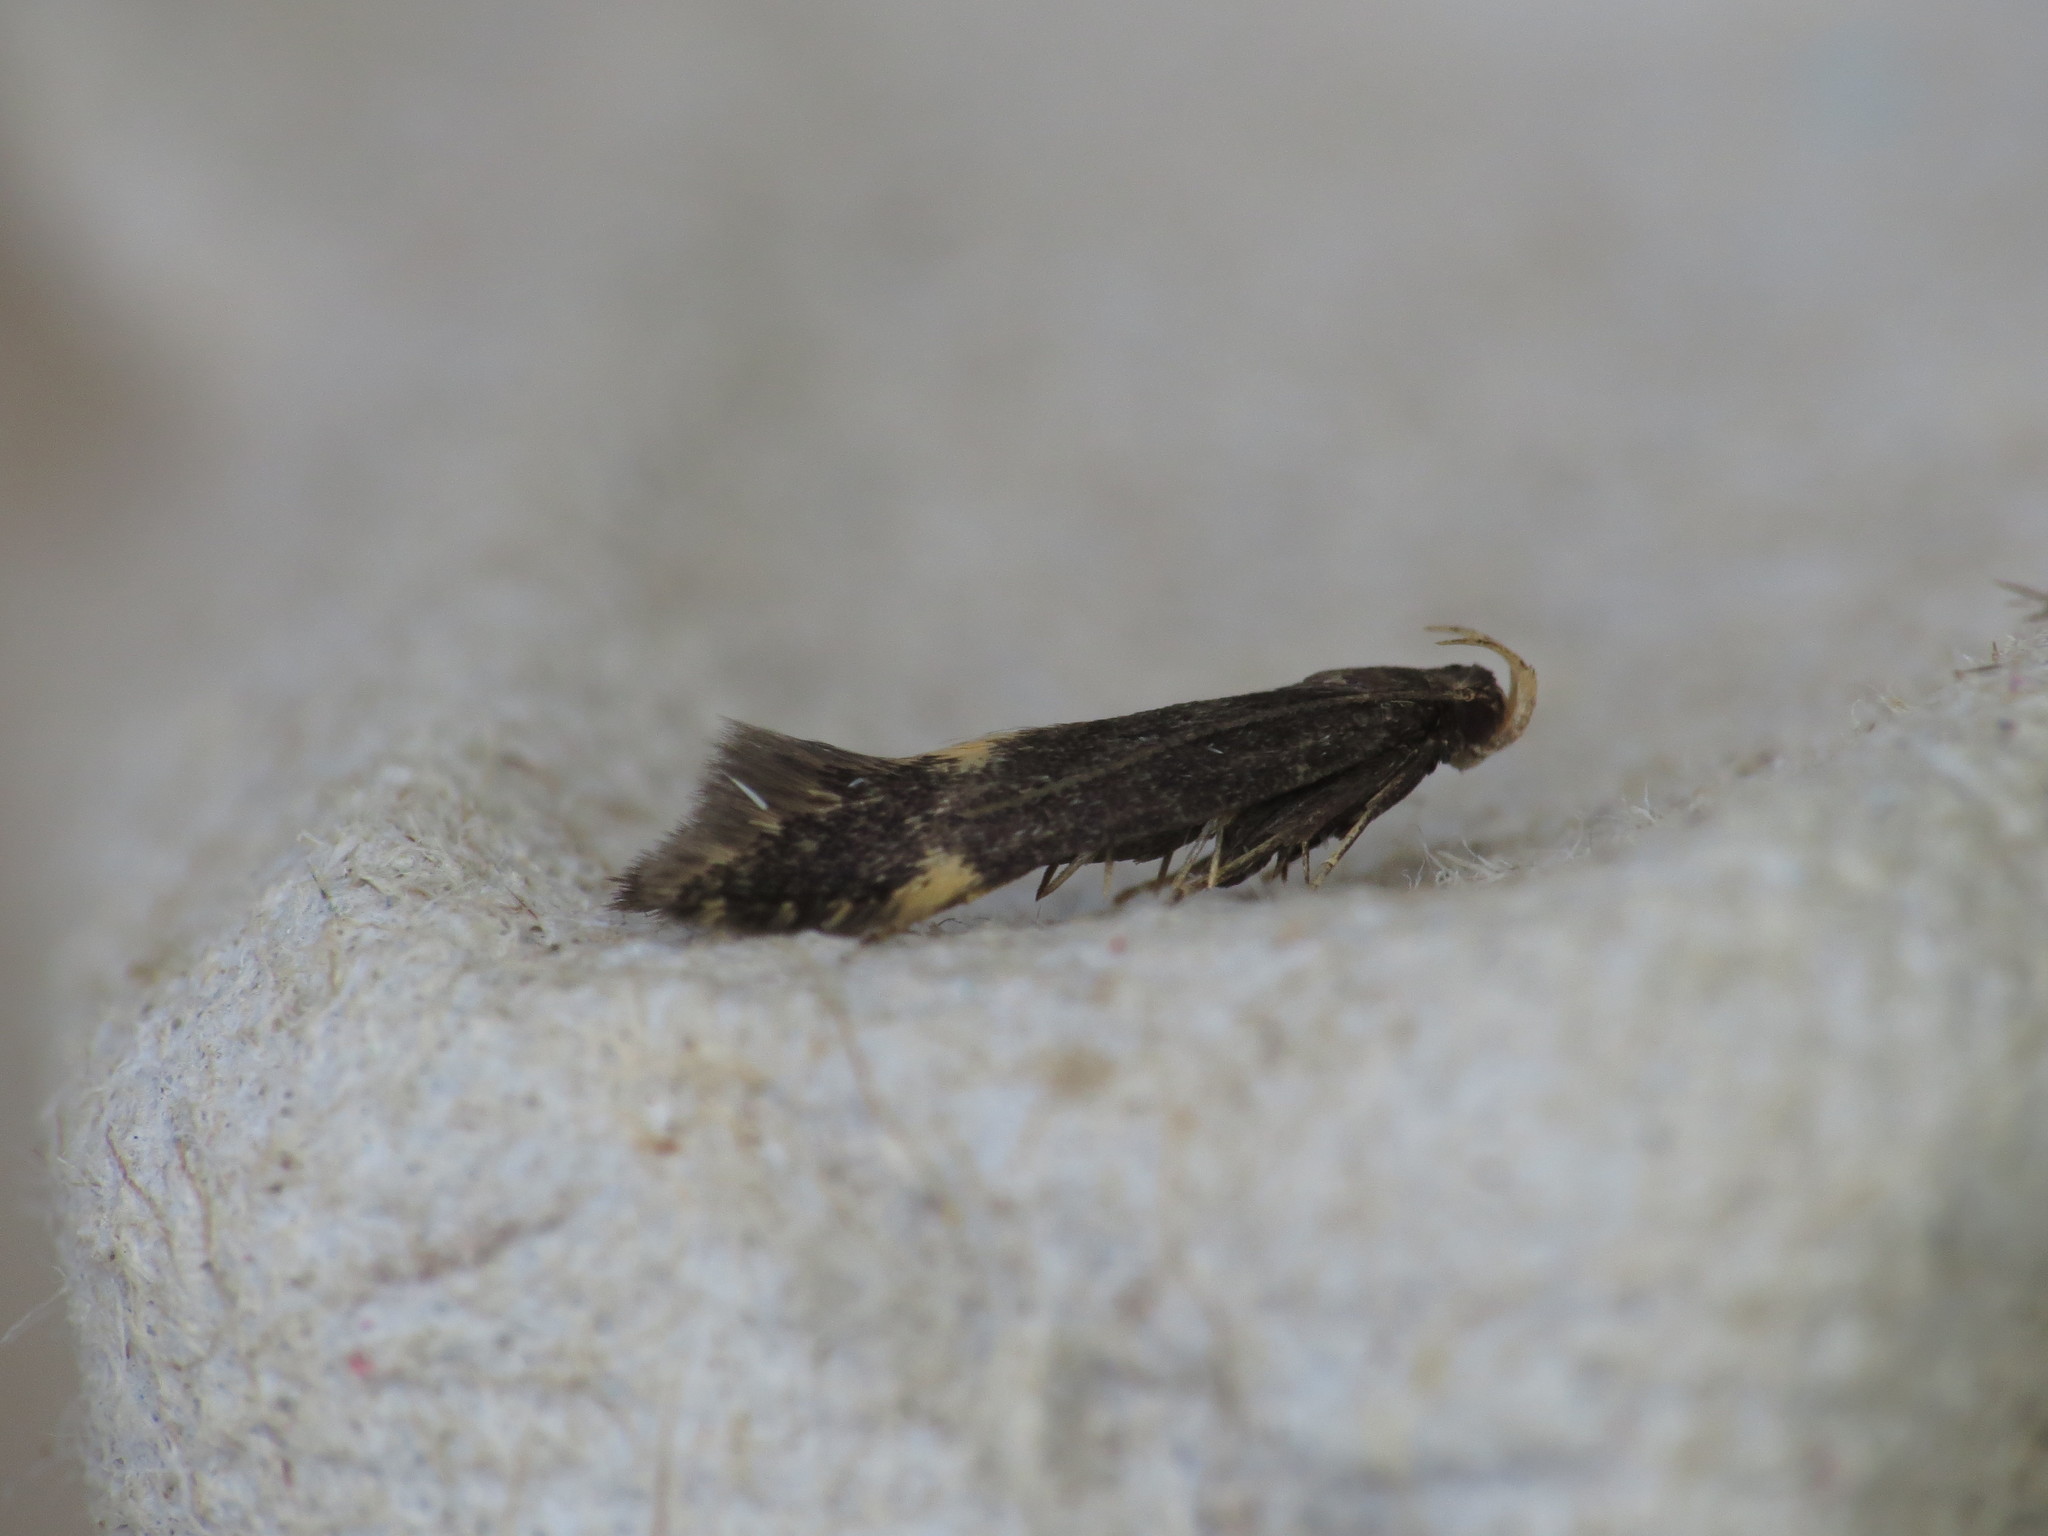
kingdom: Animalia
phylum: Arthropoda
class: Insecta
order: Lepidoptera
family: Gelechiidae
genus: Oxypteryx
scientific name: Oxypteryx atrella
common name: Two-spotted neb
